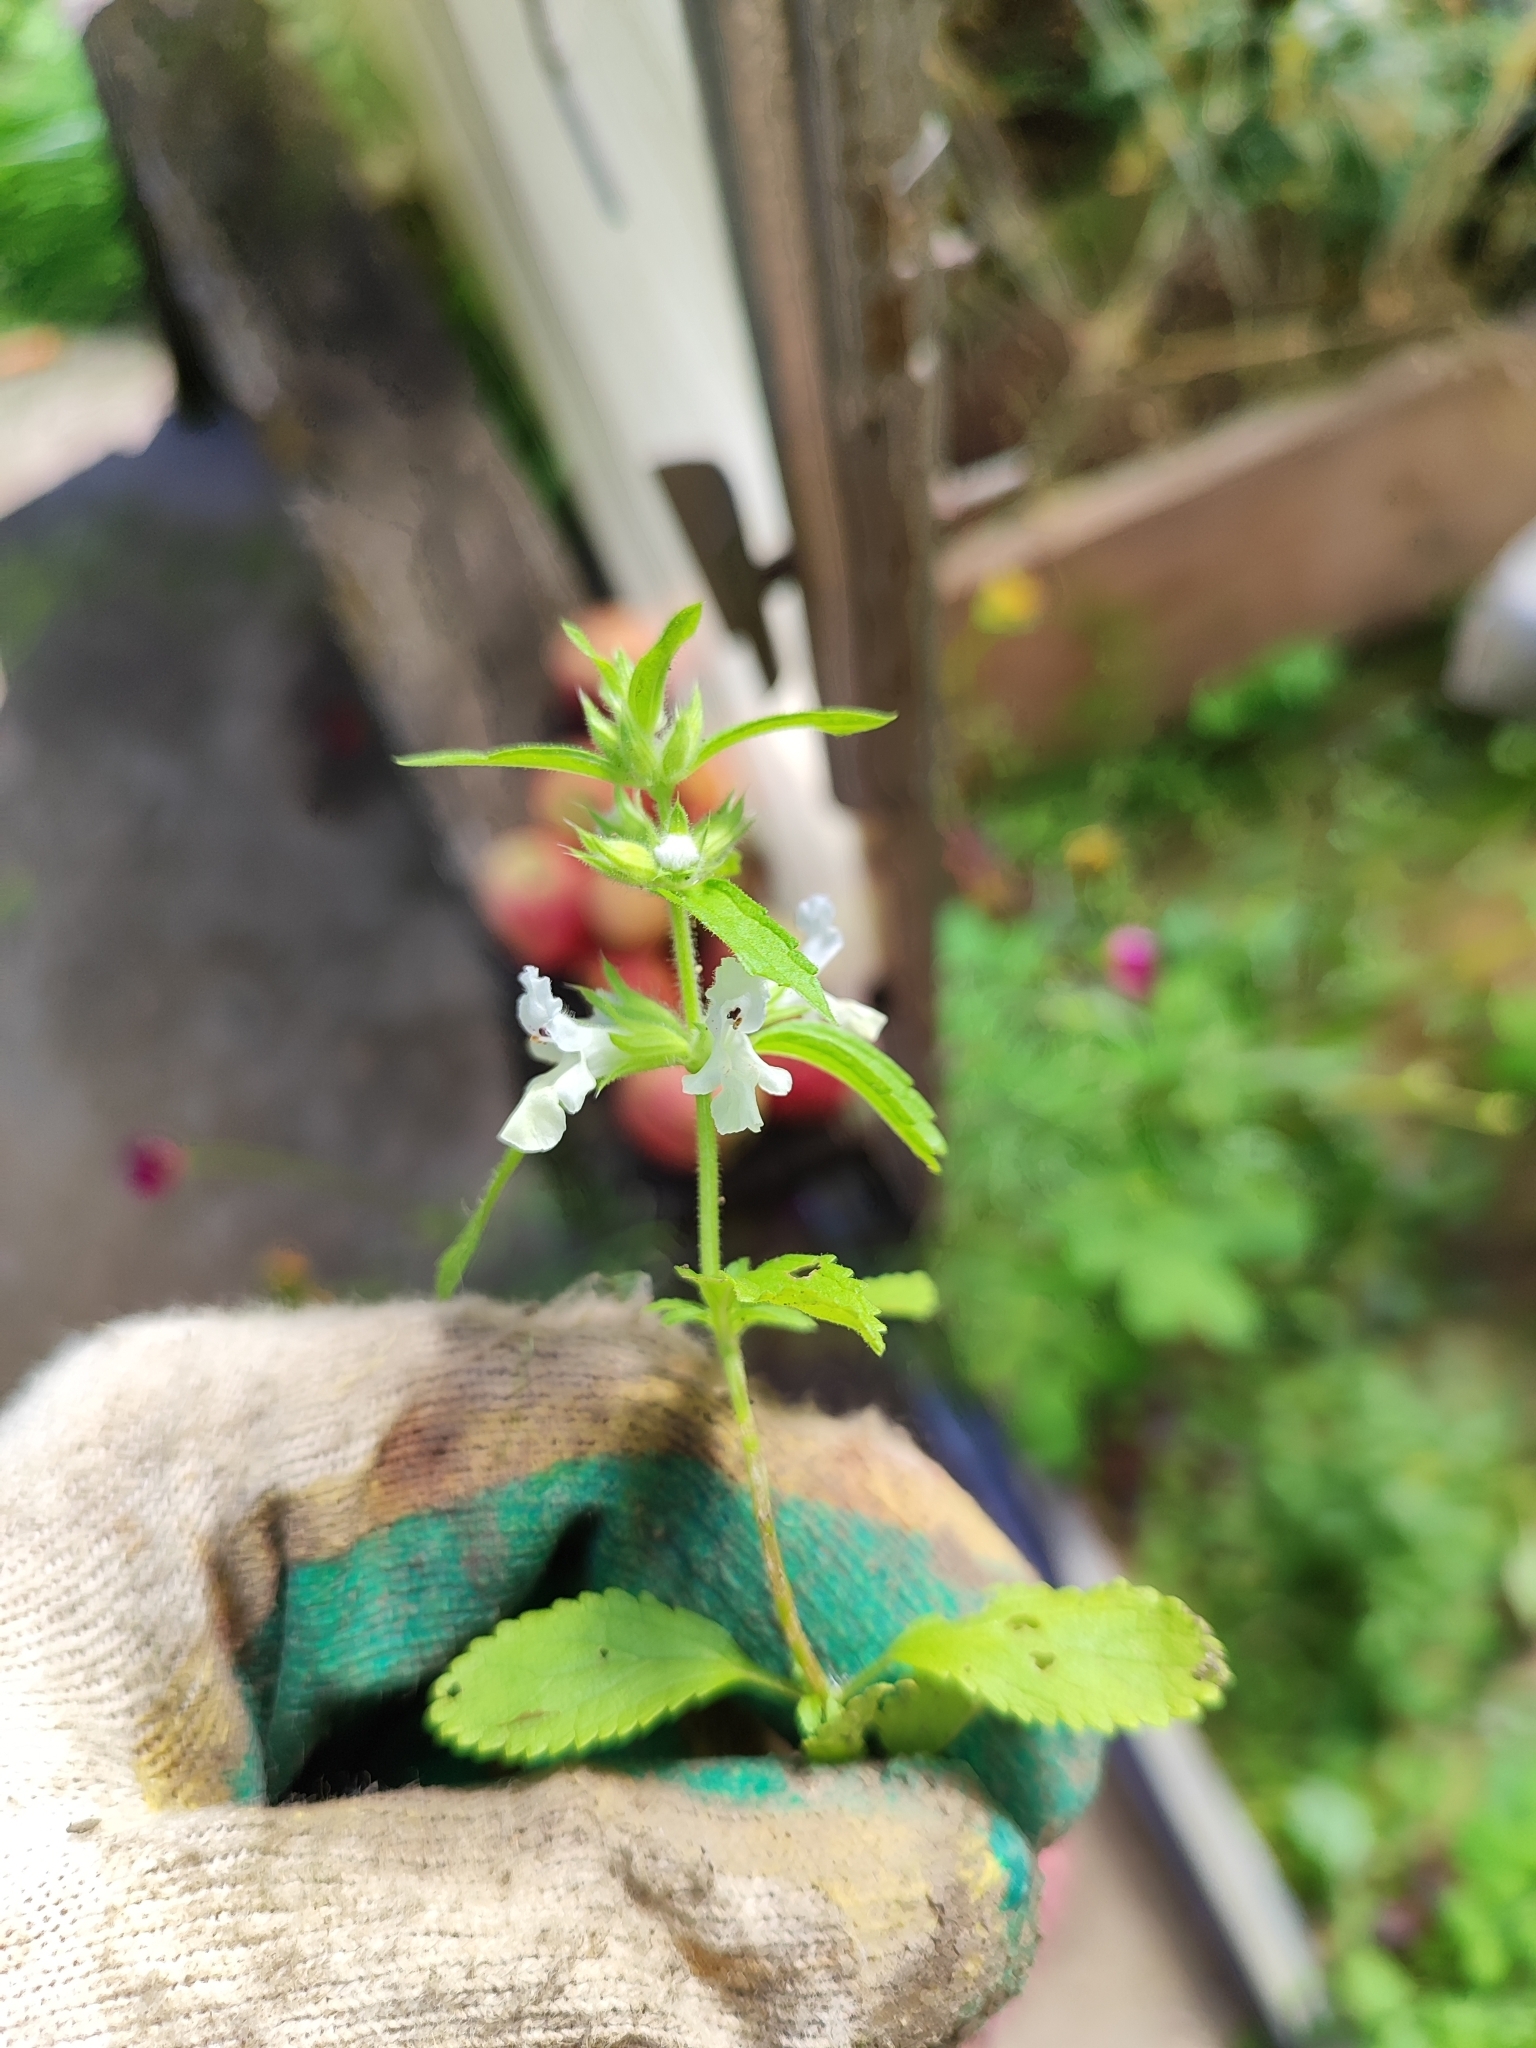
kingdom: Plantae
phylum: Tracheophyta
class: Magnoliopsida
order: Lamiales
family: Lamiaceae
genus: Stachys
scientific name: Stachys annua
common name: Annual yellow-woundwort
